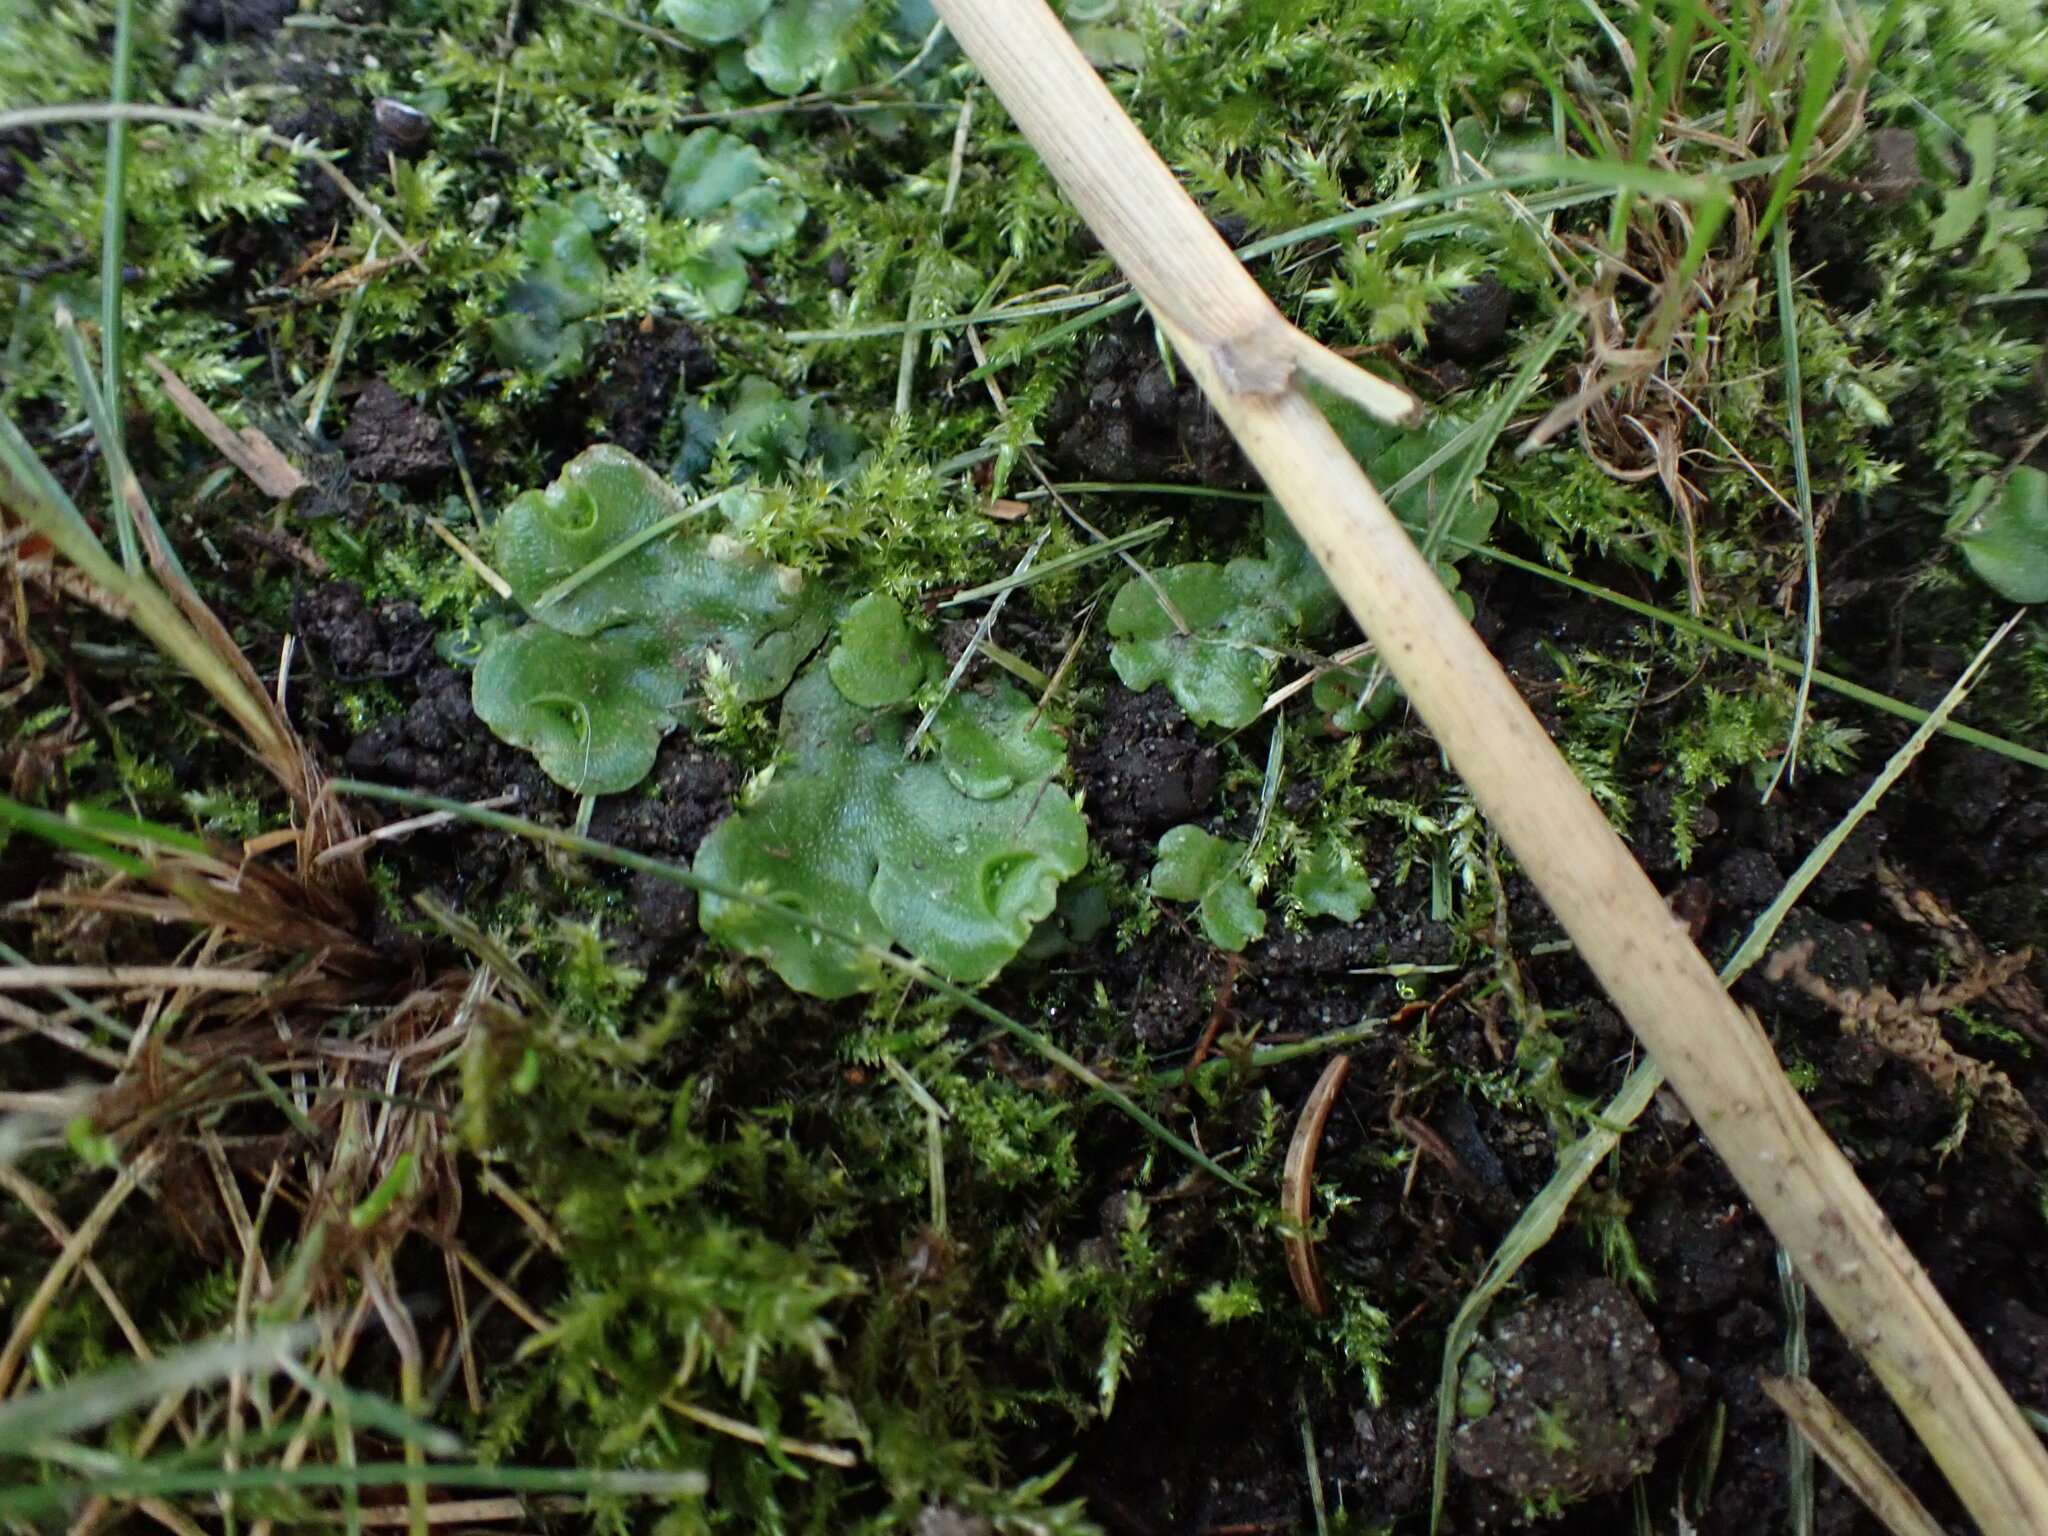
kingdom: Plantae
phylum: Marchantiophyta
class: Marchantiopsida
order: Lunulariales
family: Lunulariaceae
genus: Lunularia
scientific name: Lunularia cruciata
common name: Crescent-cup liverwort
